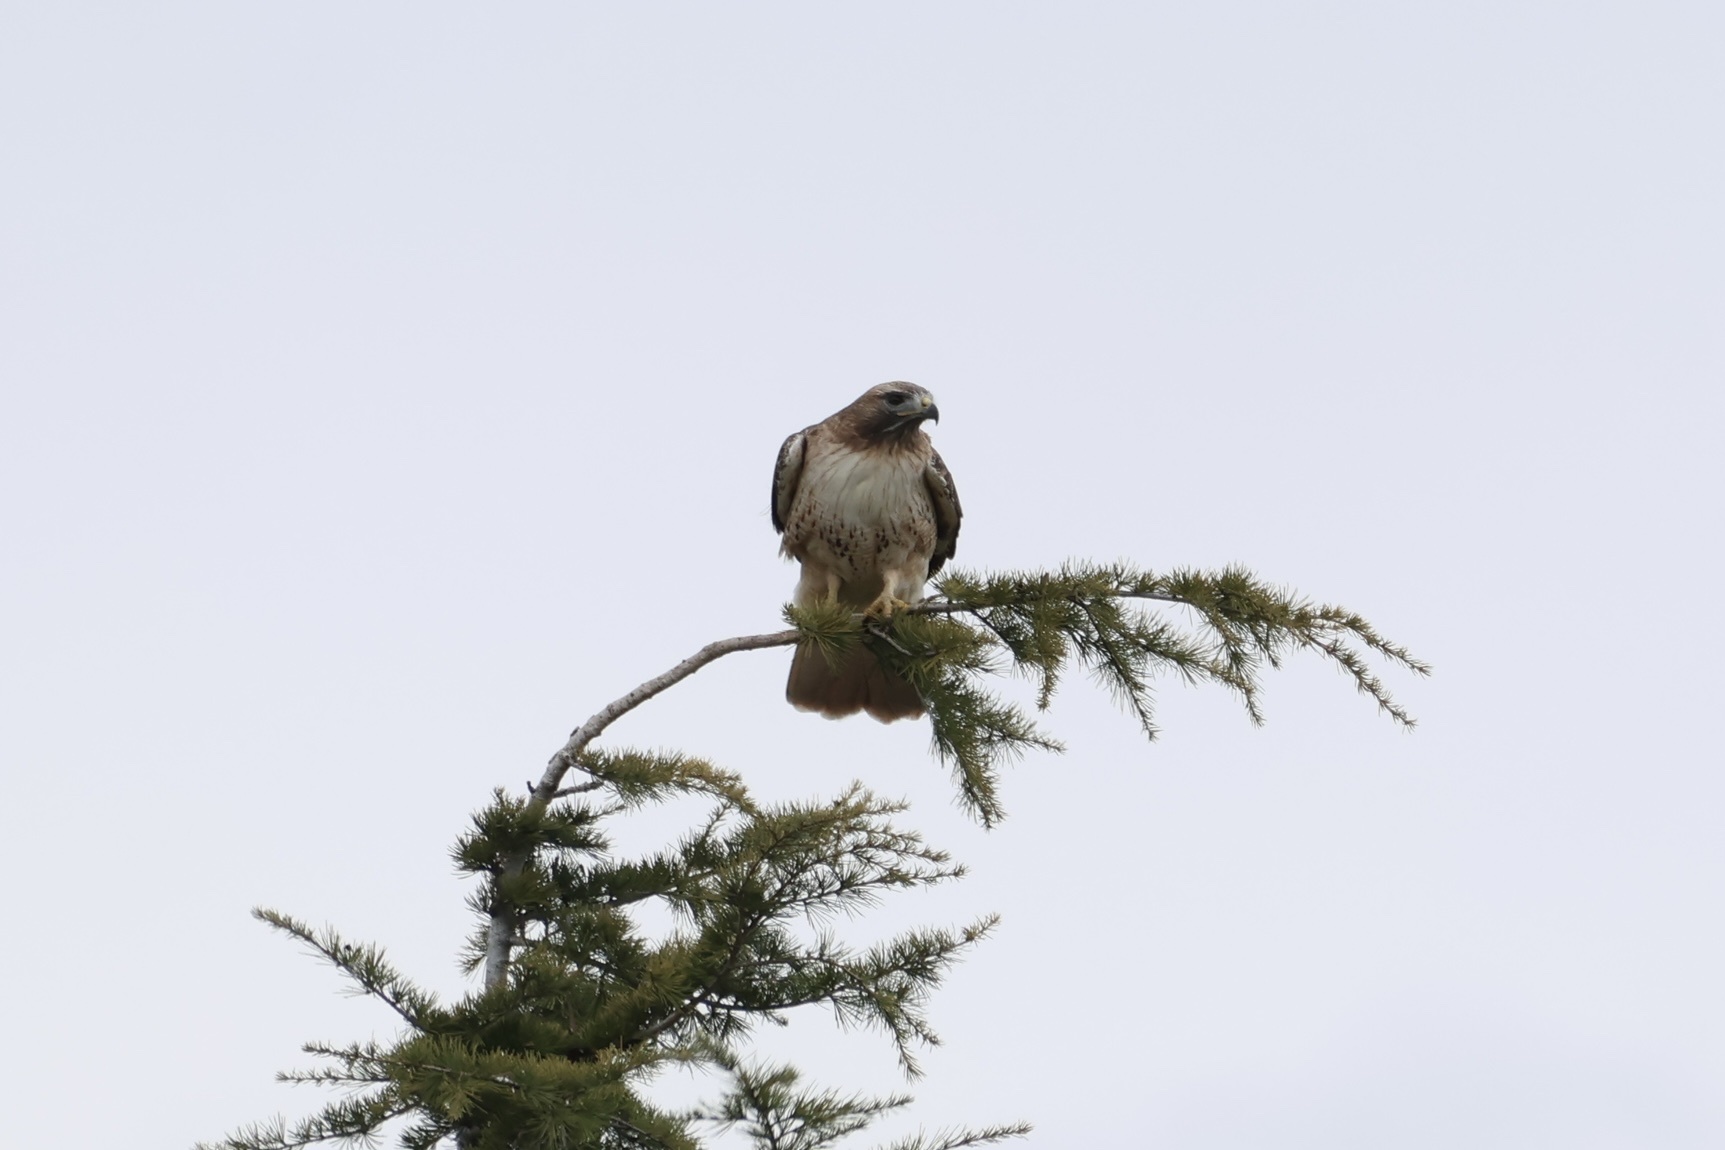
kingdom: Animalia
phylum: Chordata
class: Aves
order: Accipitriformes
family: Accipitridae
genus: Buteo
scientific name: Buteo jamaicensis
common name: Red-tailed hawk
